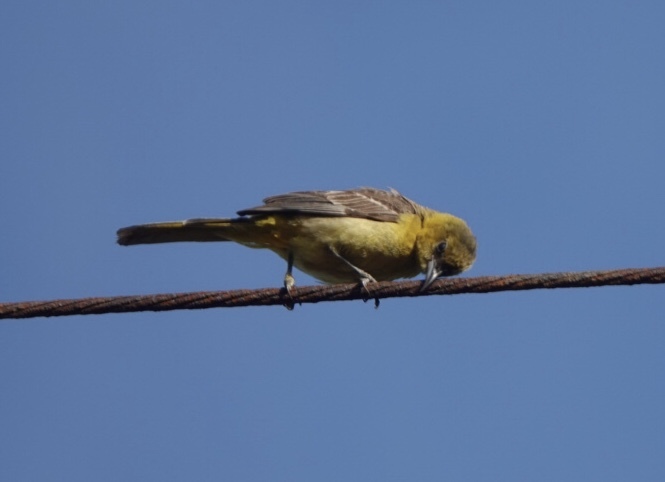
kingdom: Animalia
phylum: Chordata
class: Aves
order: Passeriformes
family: Icteridae
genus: Icterus
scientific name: Icterus cucullatus
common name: Hooded oriole
